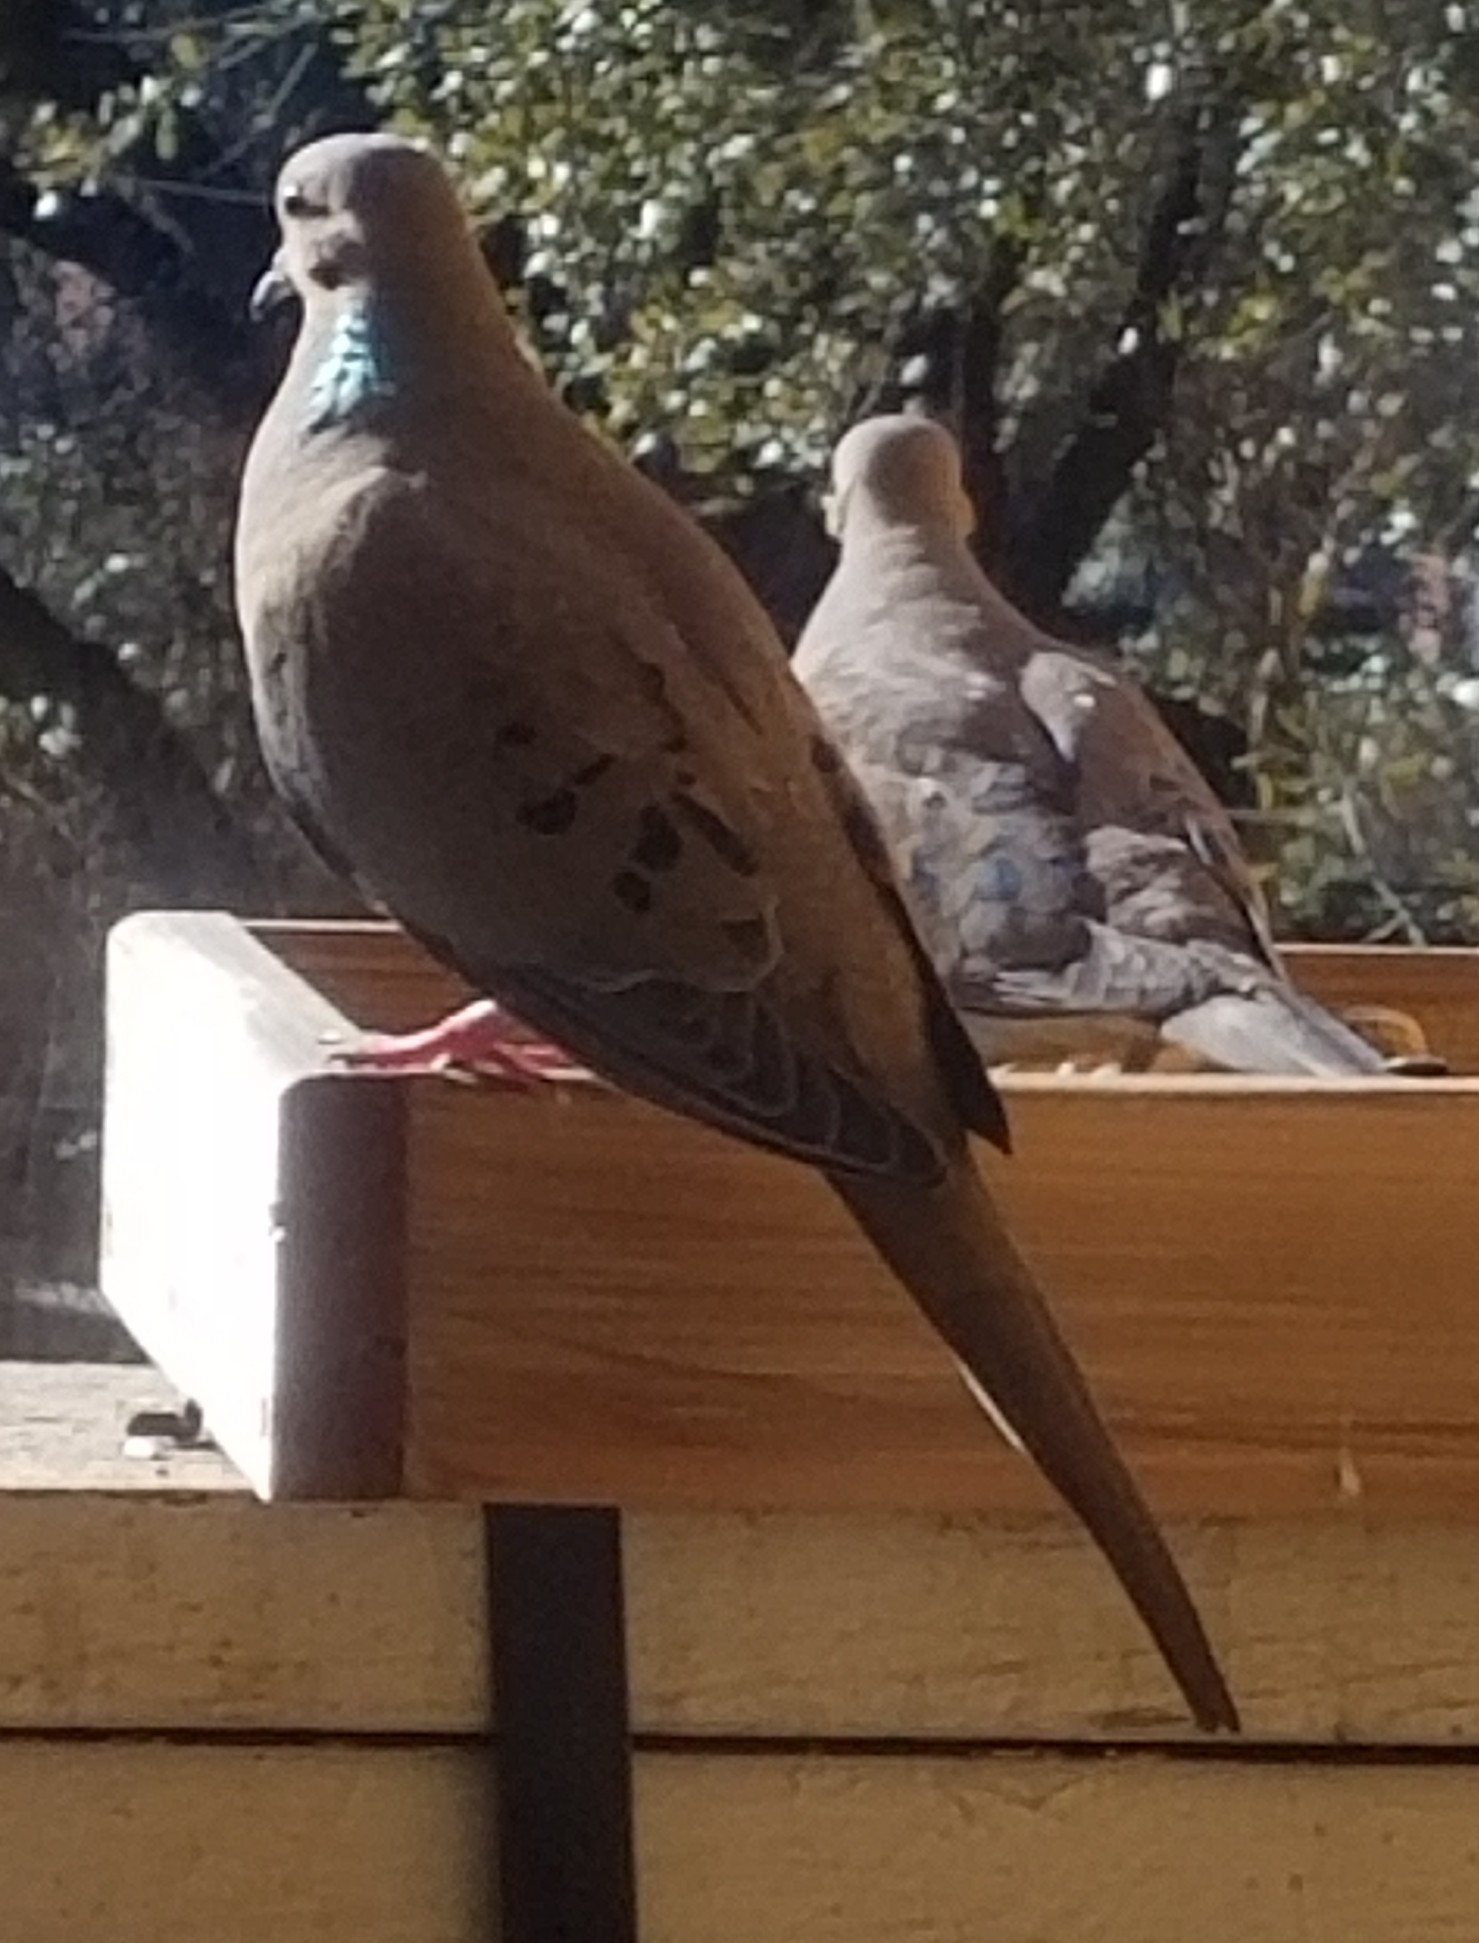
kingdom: Animalia
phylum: Chordata
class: Aves
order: Columbiformes
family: Columbidae
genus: Zenaida
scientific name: Zenaida macroura
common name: Mourning dove
